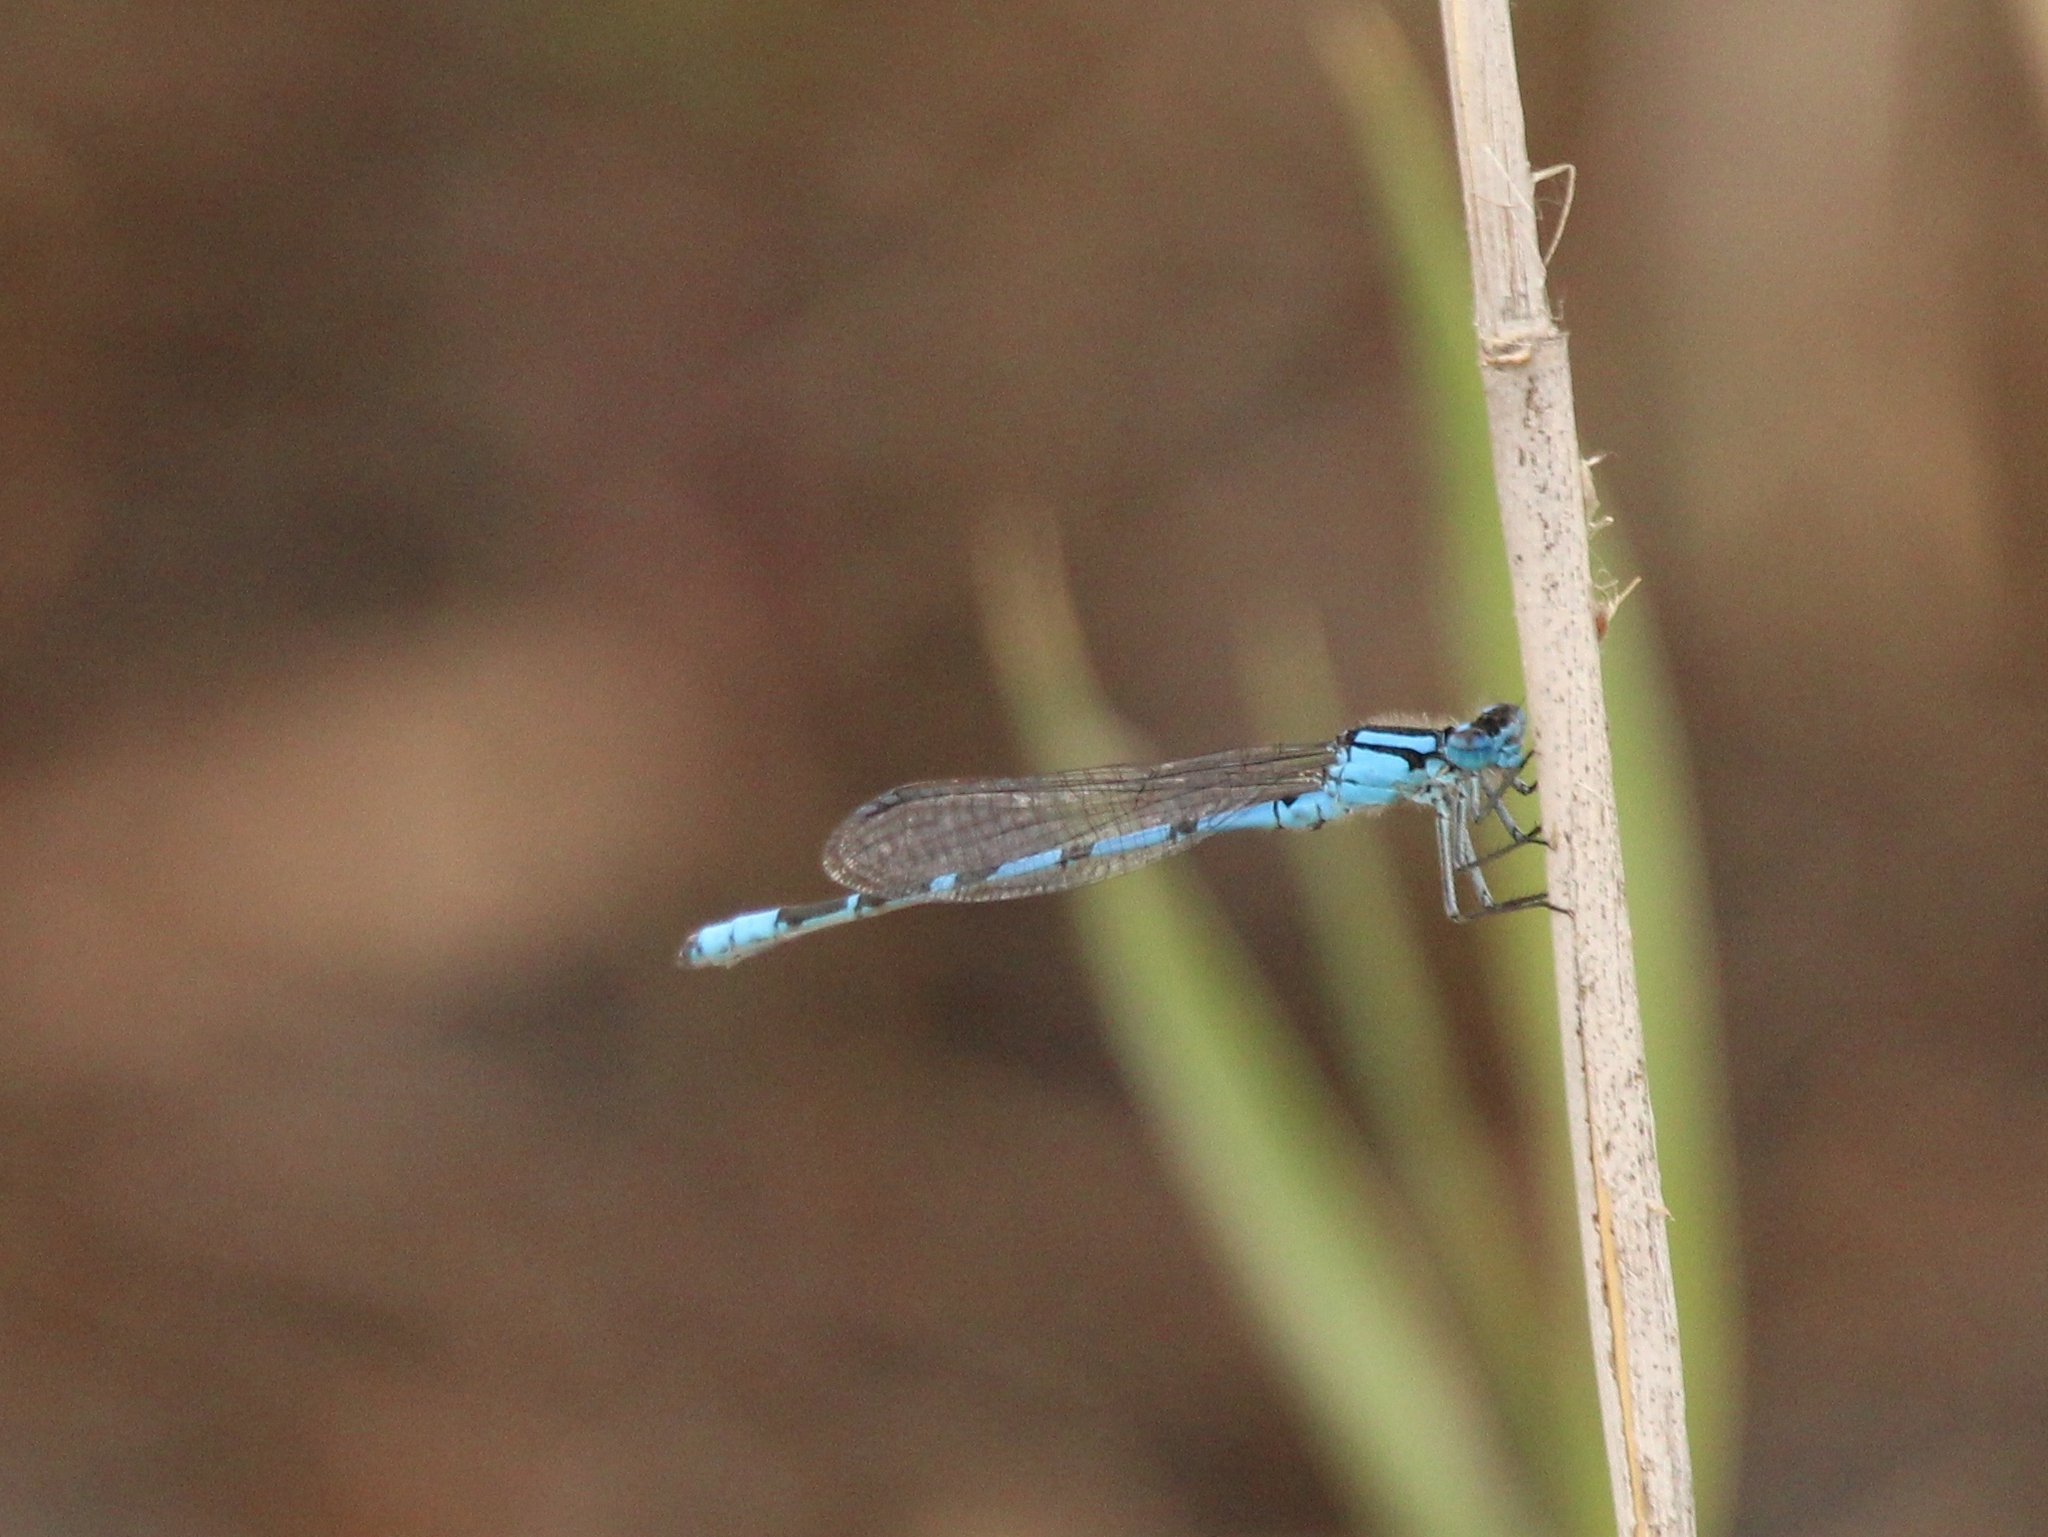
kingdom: Animalia
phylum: Arthropoda
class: Insecta
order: Odonata
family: Coenagrionidae
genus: Enallagma
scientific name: Enallagma cyathigerum
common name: Common blue damselfly
